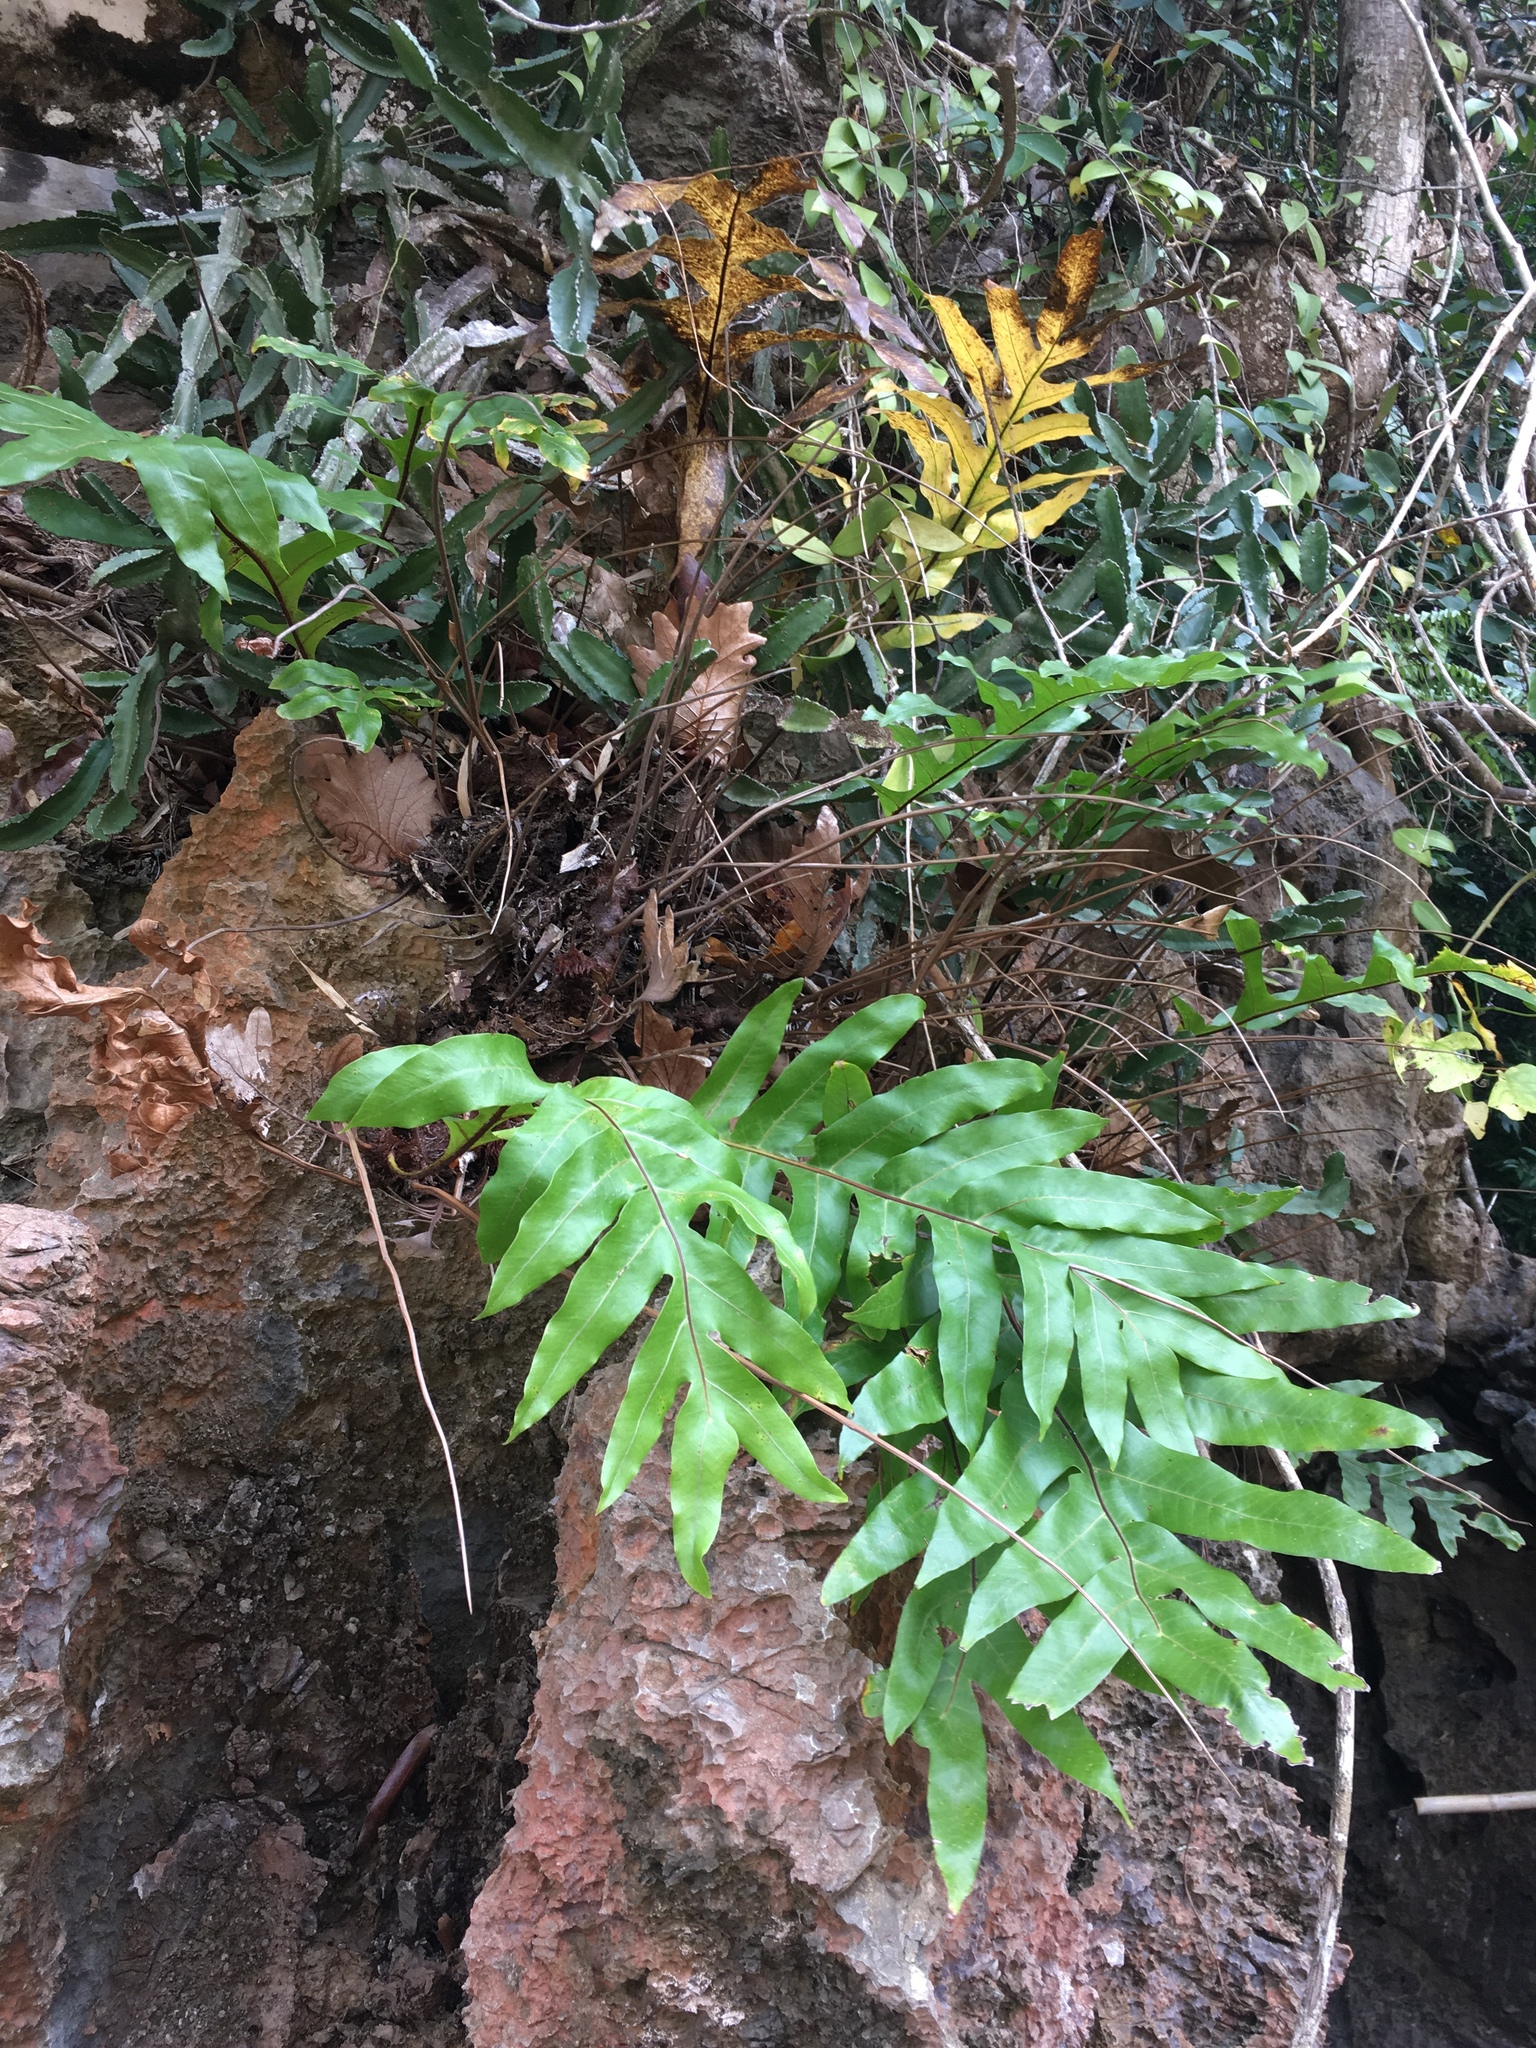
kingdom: Plantae
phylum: Tracheophyta
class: Polypodiopsida
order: Polypodiales
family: Polypodiaceae
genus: Drynaria
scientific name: Drynaria quercifolia
